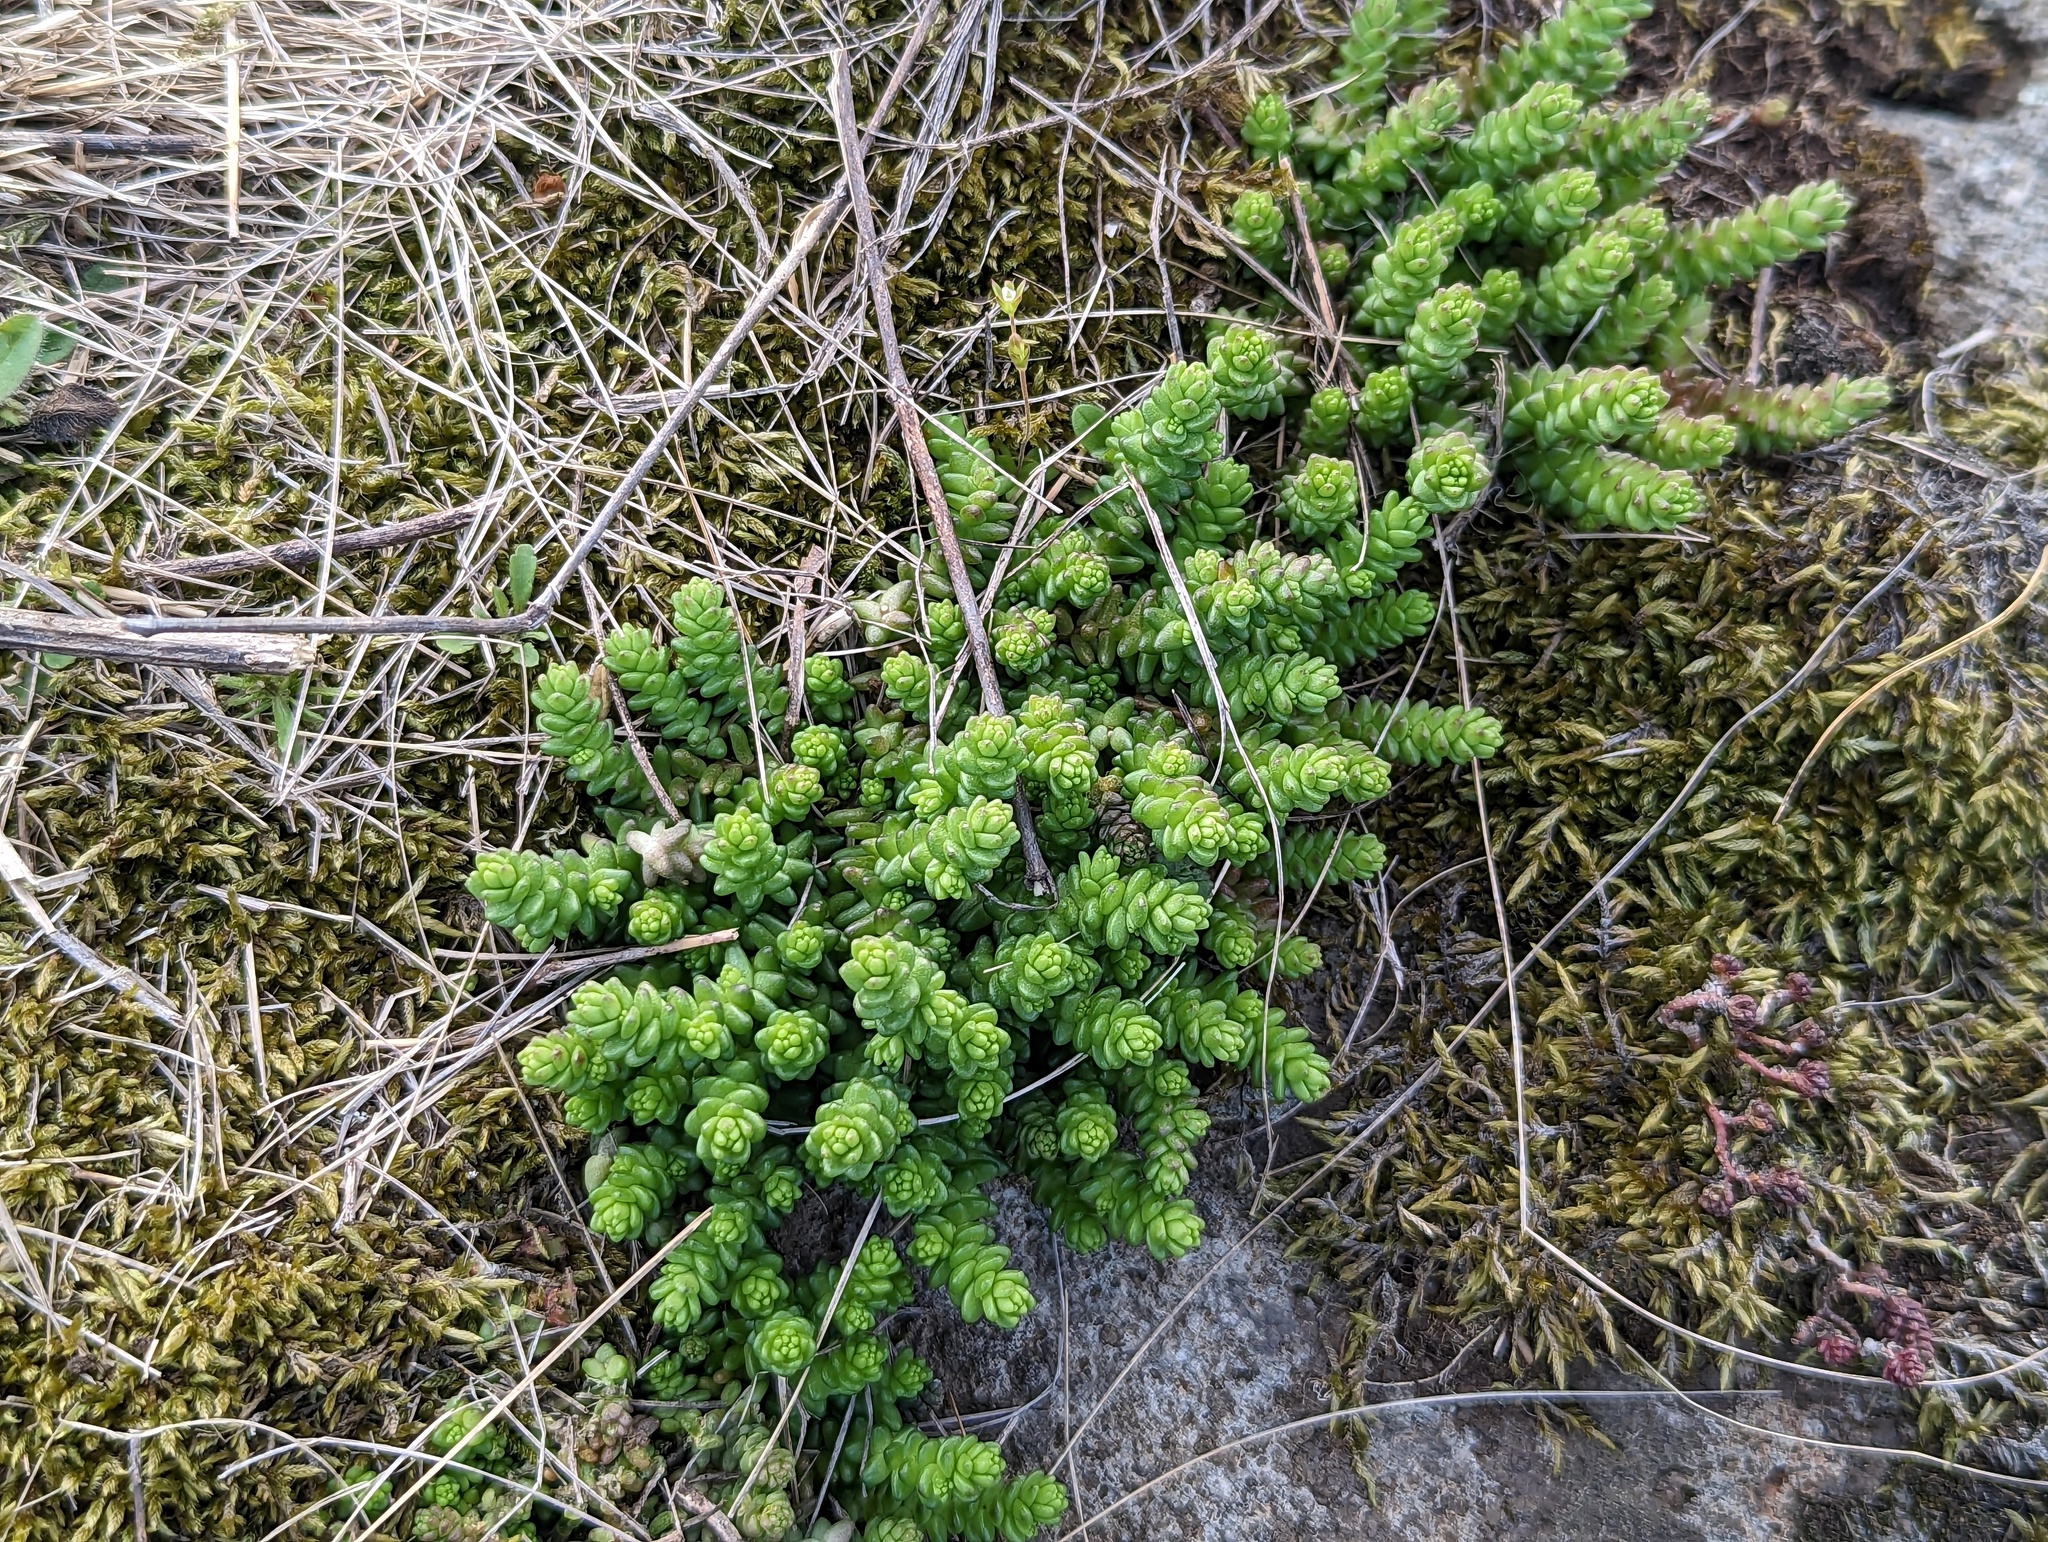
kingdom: Plantae
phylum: Tracheophyta
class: Magnoliopsida
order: Saxifragales
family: Crassulaceae
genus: Sedum
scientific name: Sedum acre
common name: Biting stonecrop
